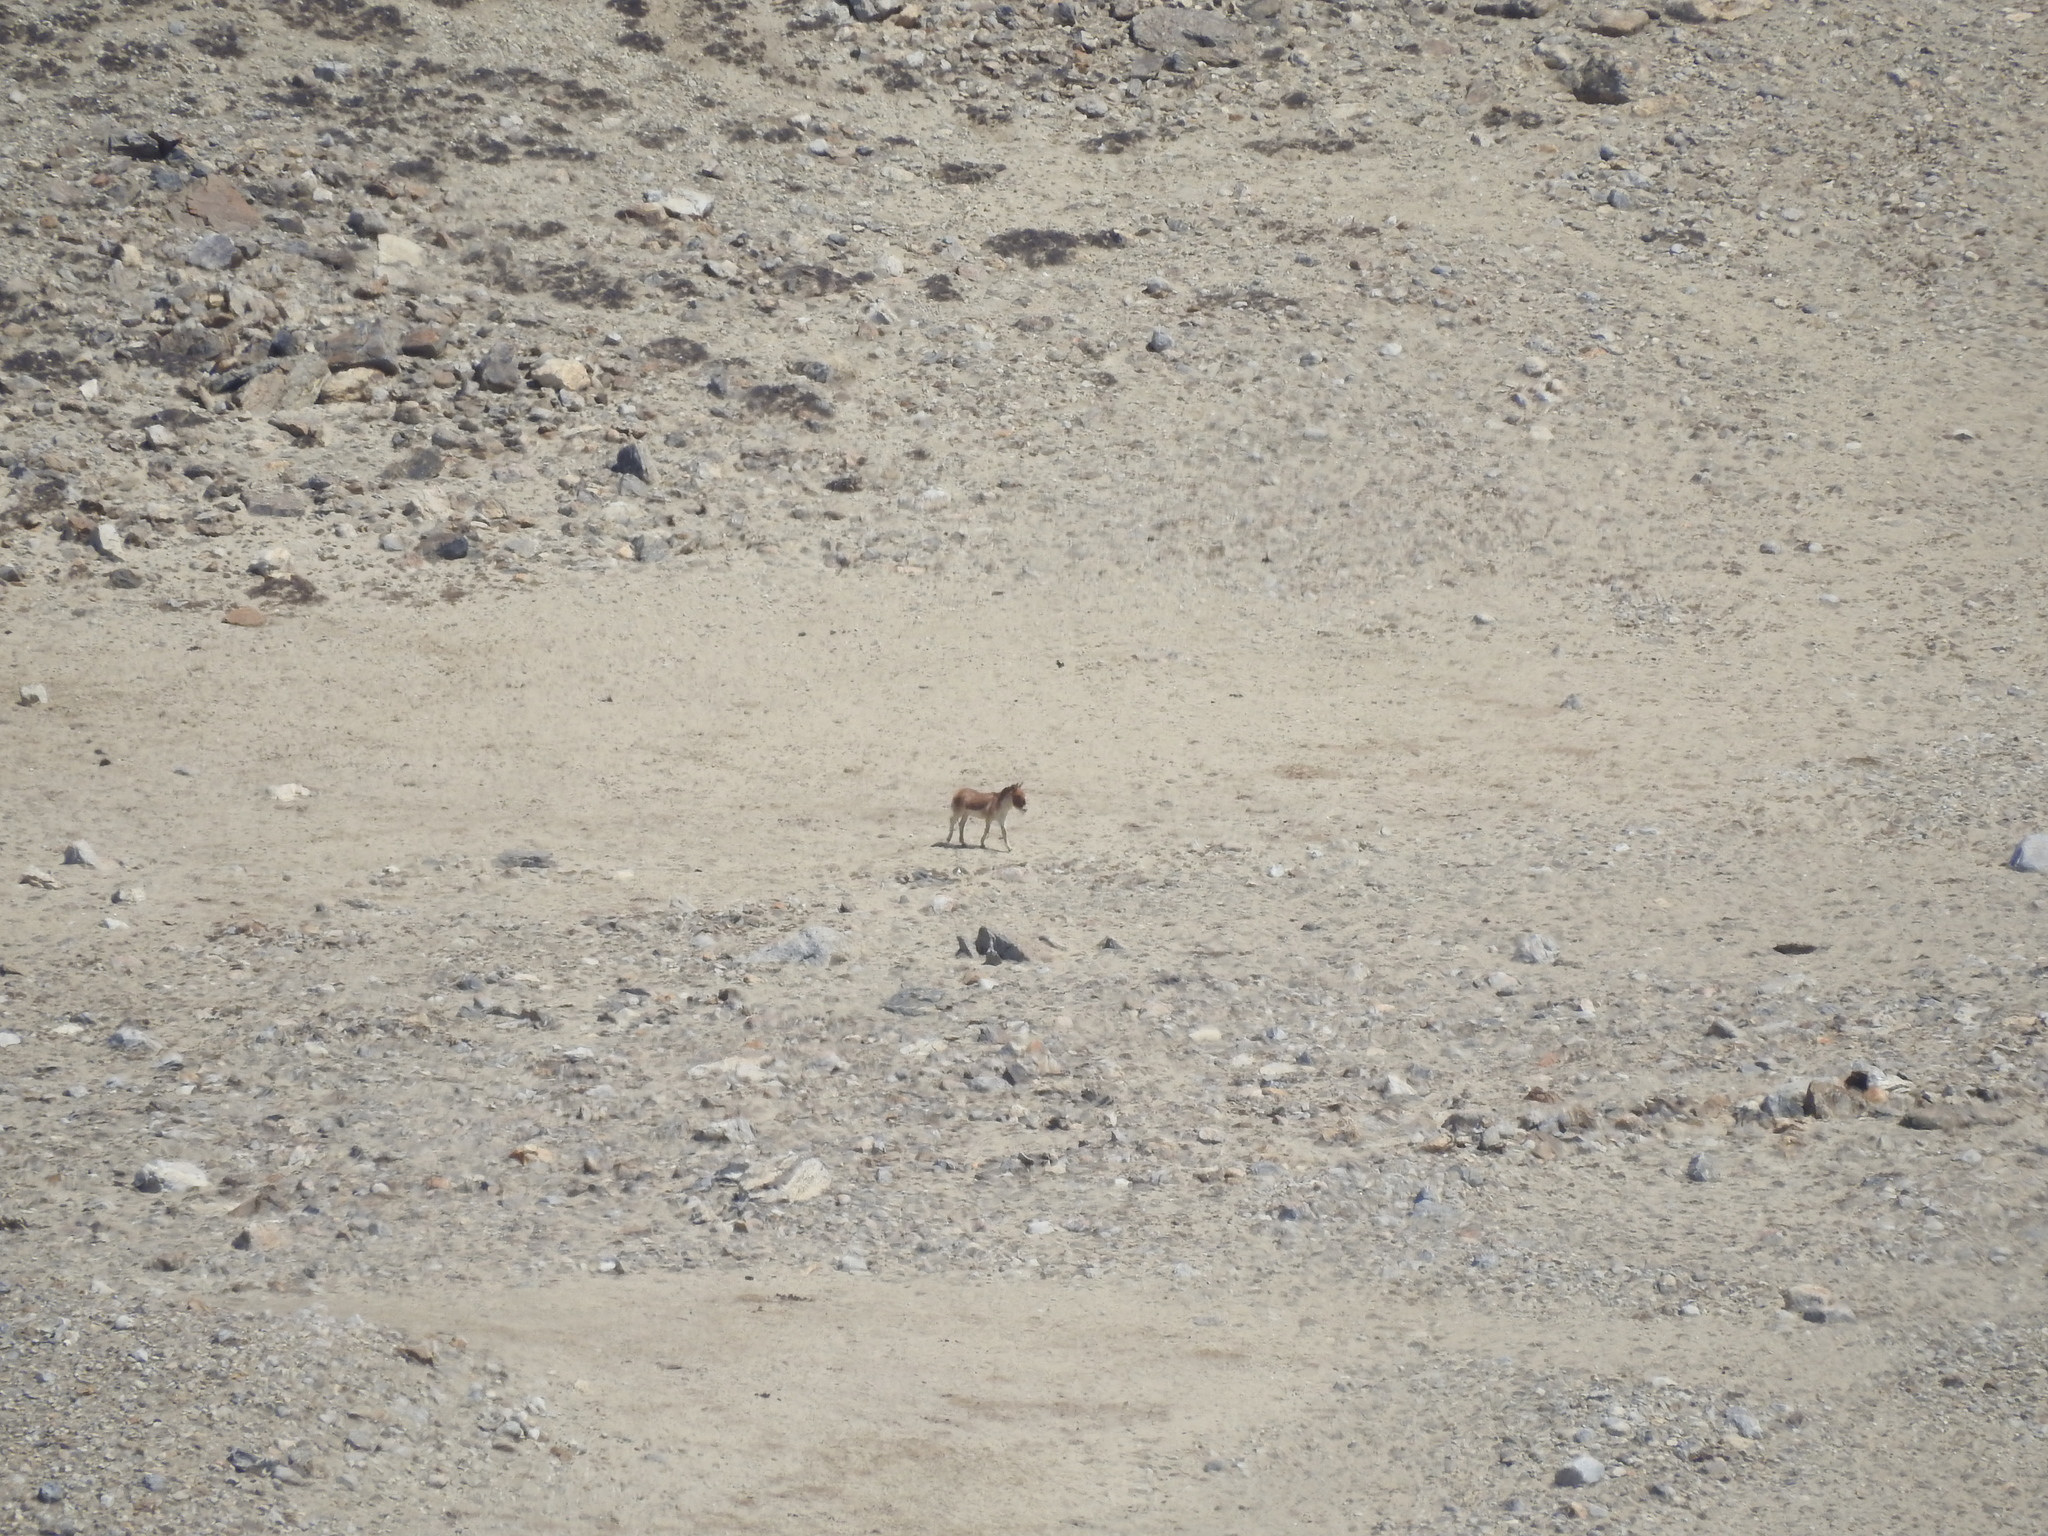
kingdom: Animalia
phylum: Chordata
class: Mammalia
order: Perissodactyla
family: Equidae
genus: Equus
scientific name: Equus kiang
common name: Kiang
